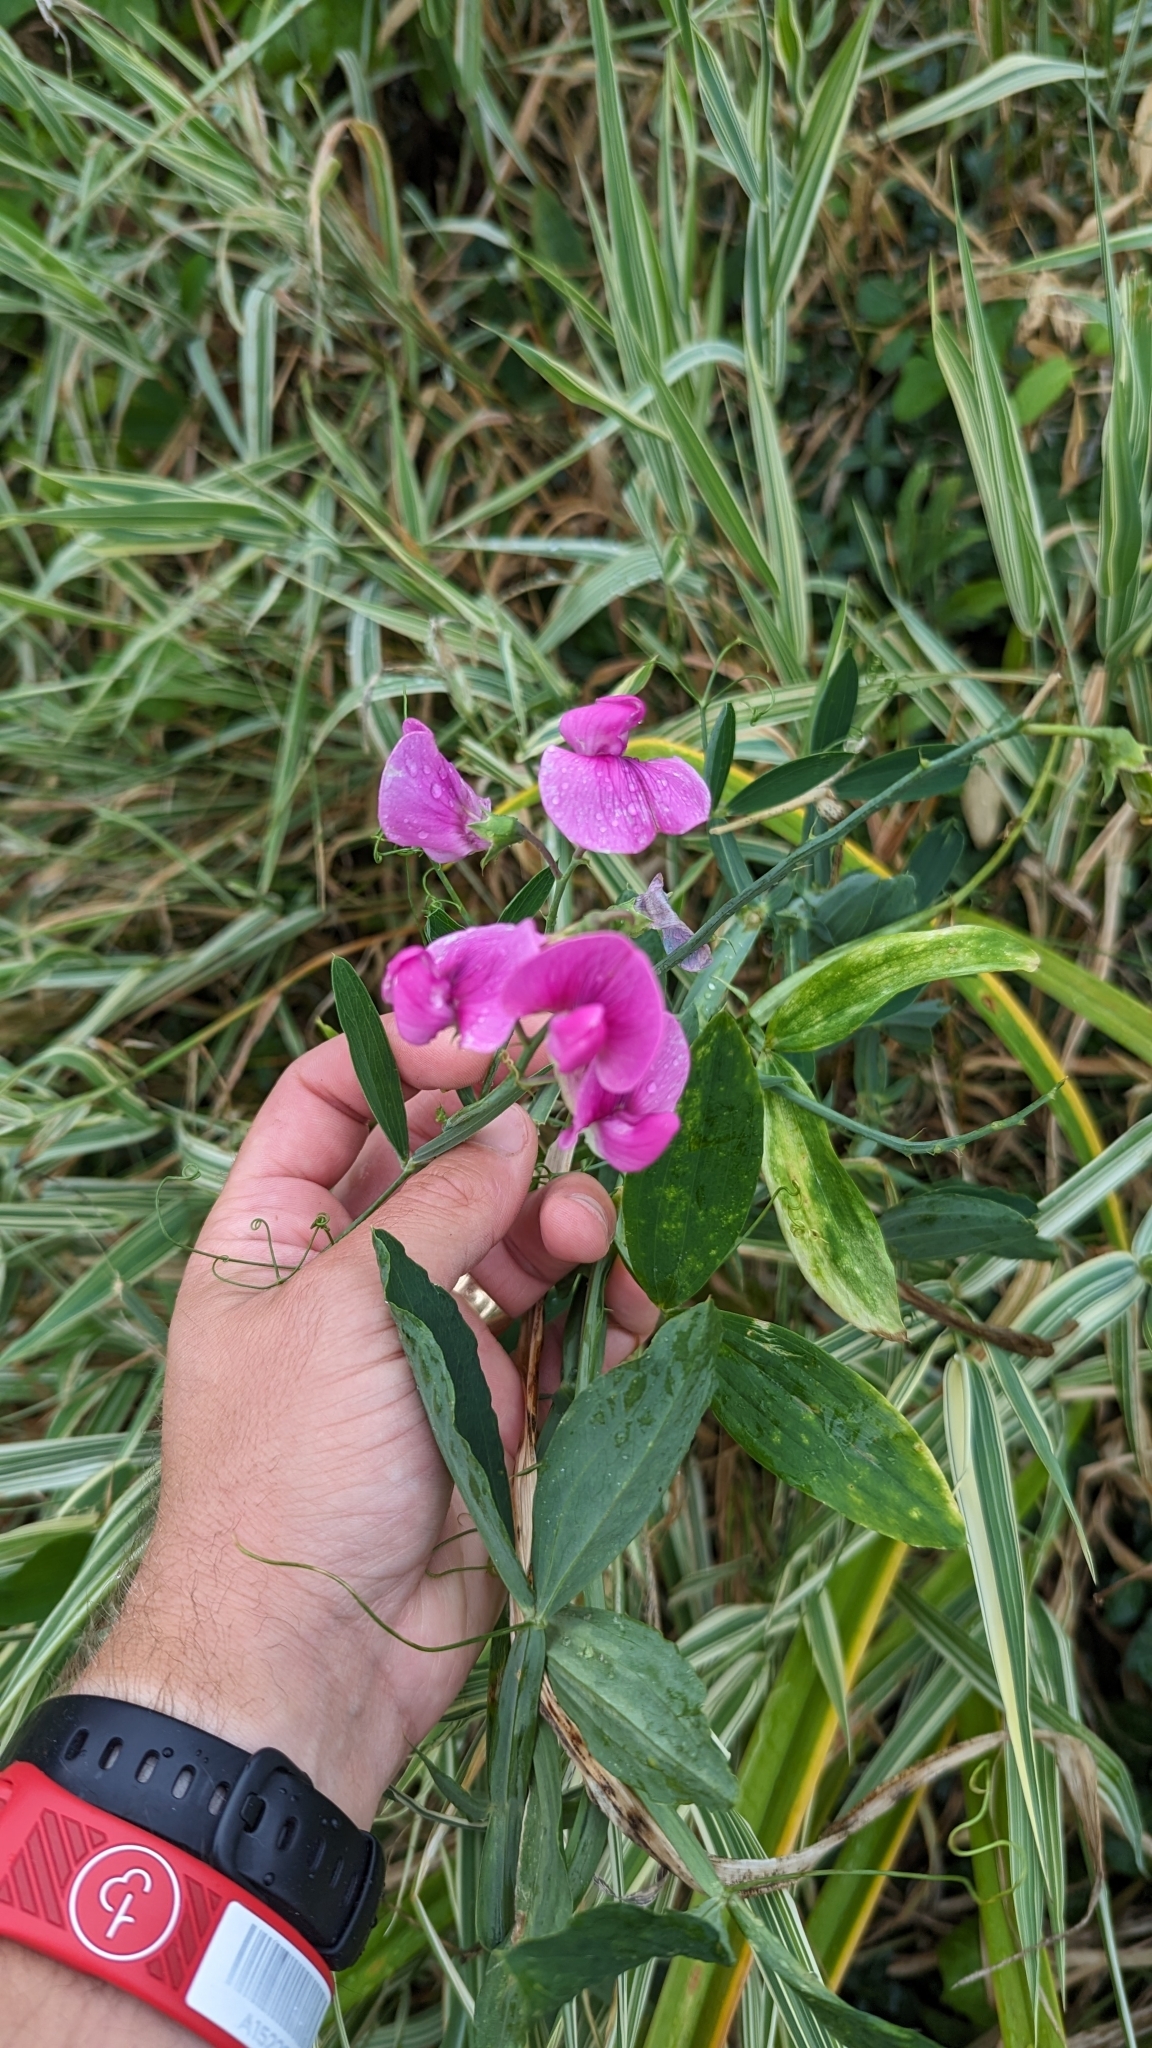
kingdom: Plantae
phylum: Tracheophyta
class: Magnoliopsida
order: Fabales
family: Fabaceae
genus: Lathyrus
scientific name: Lathyrus latifolius
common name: Perennial pea
